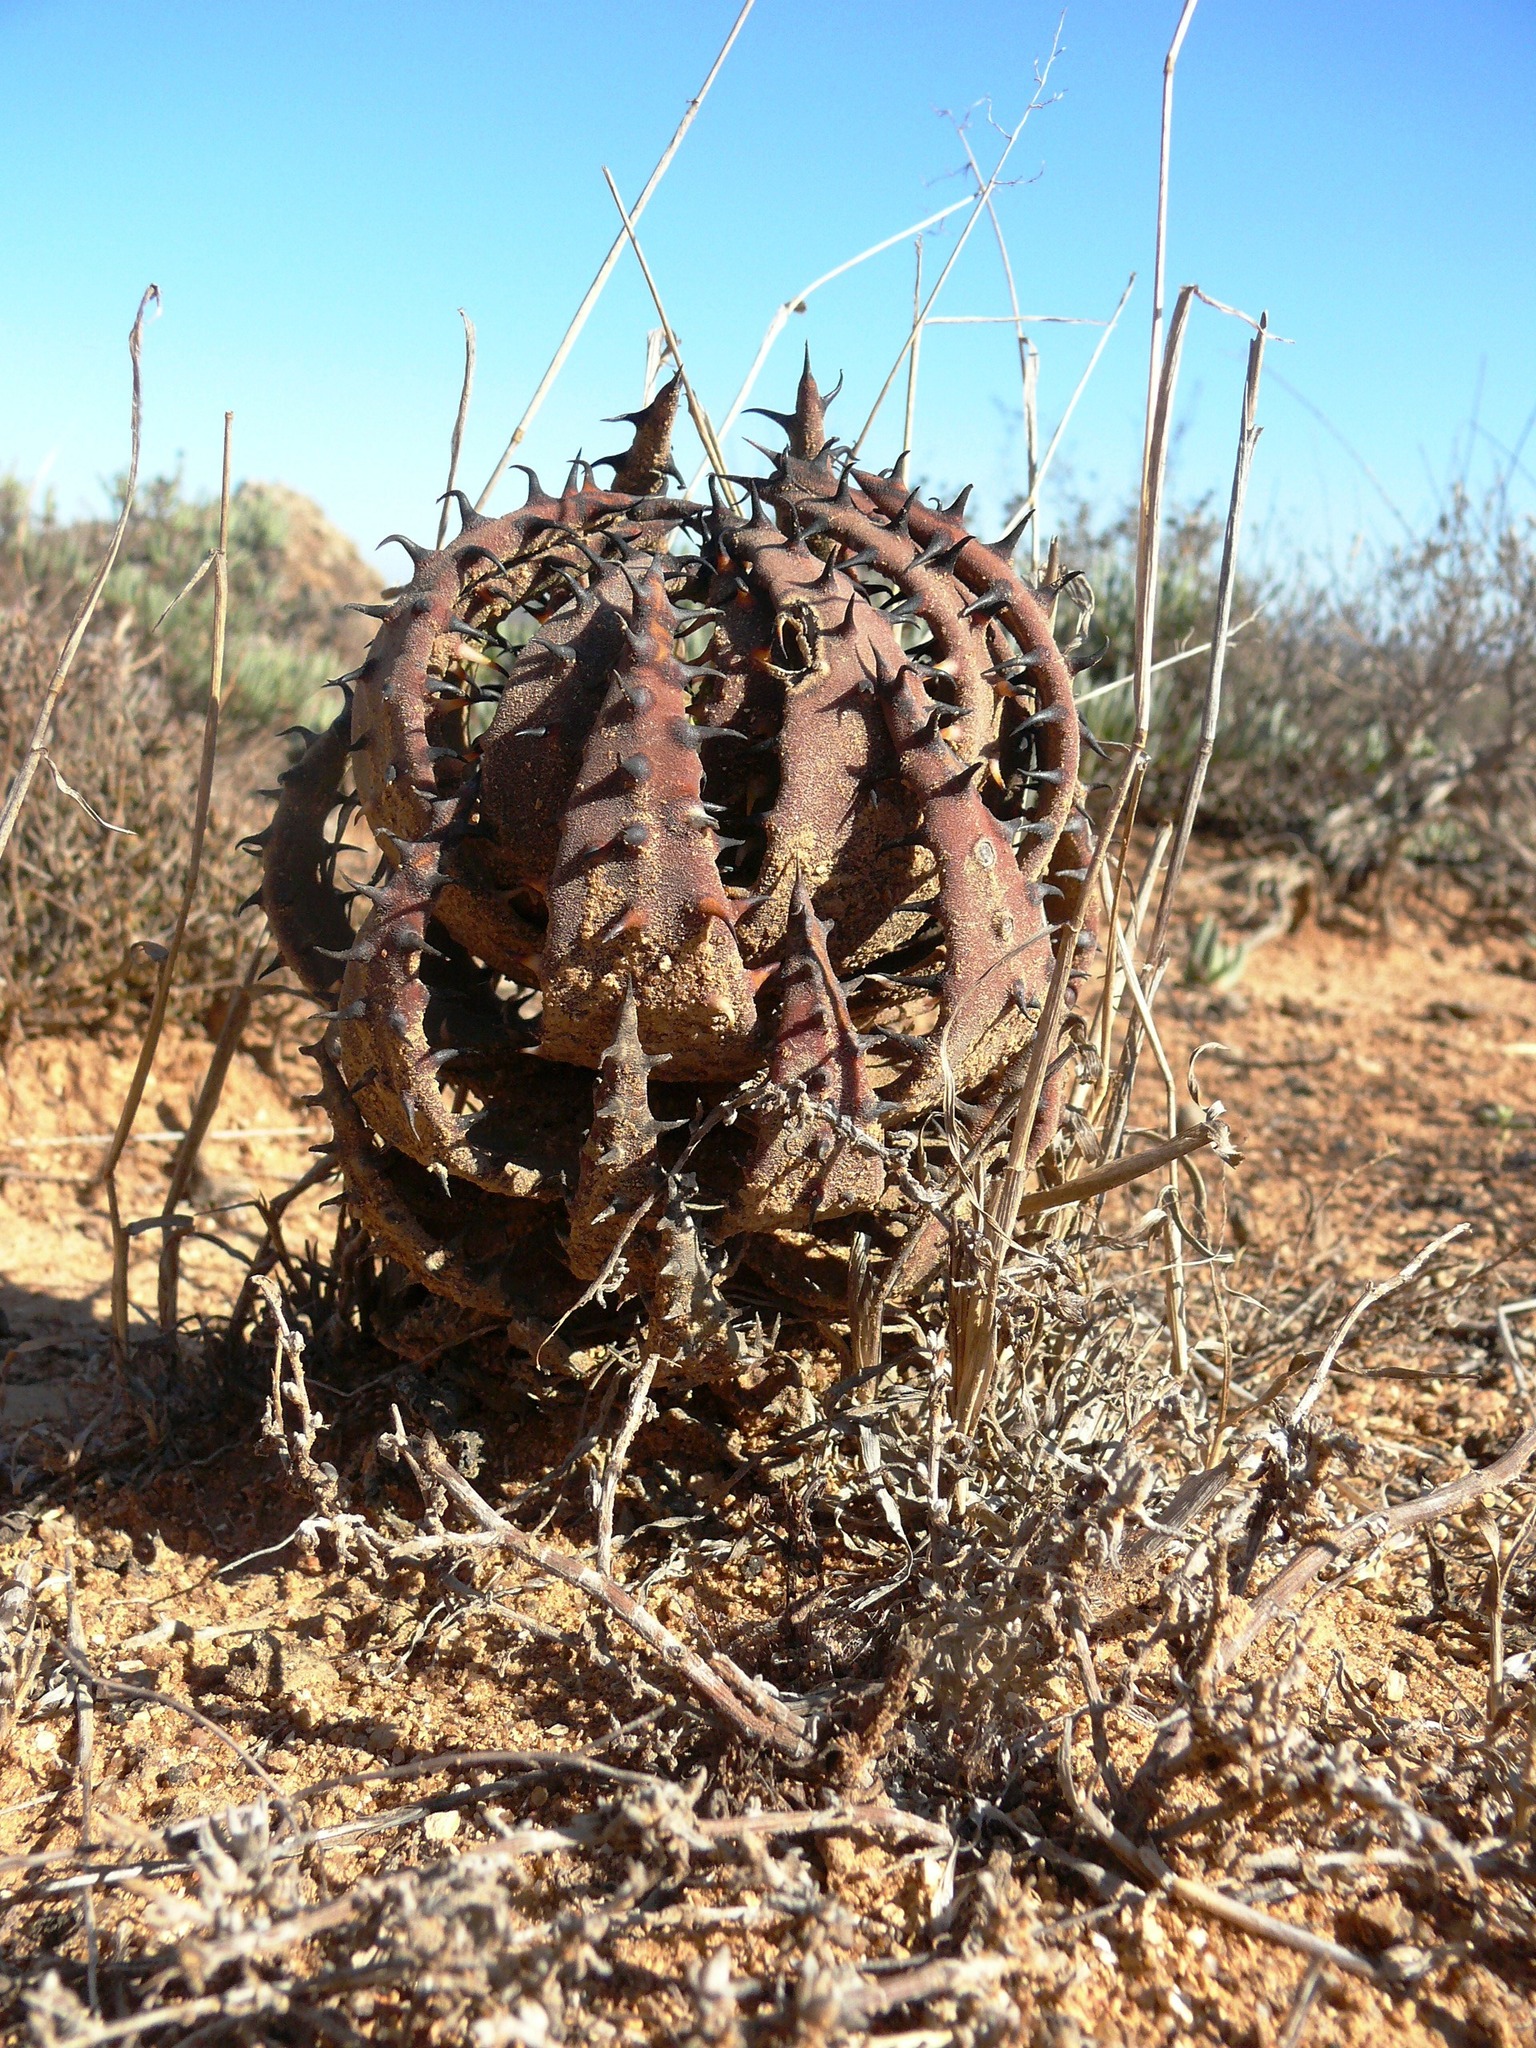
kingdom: Plantae
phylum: Tracheophyta
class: Liliopsida
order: Asparagales
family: Asphodelaceae
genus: Aloe
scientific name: Aloe melanacantha
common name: Black thorn aloe
